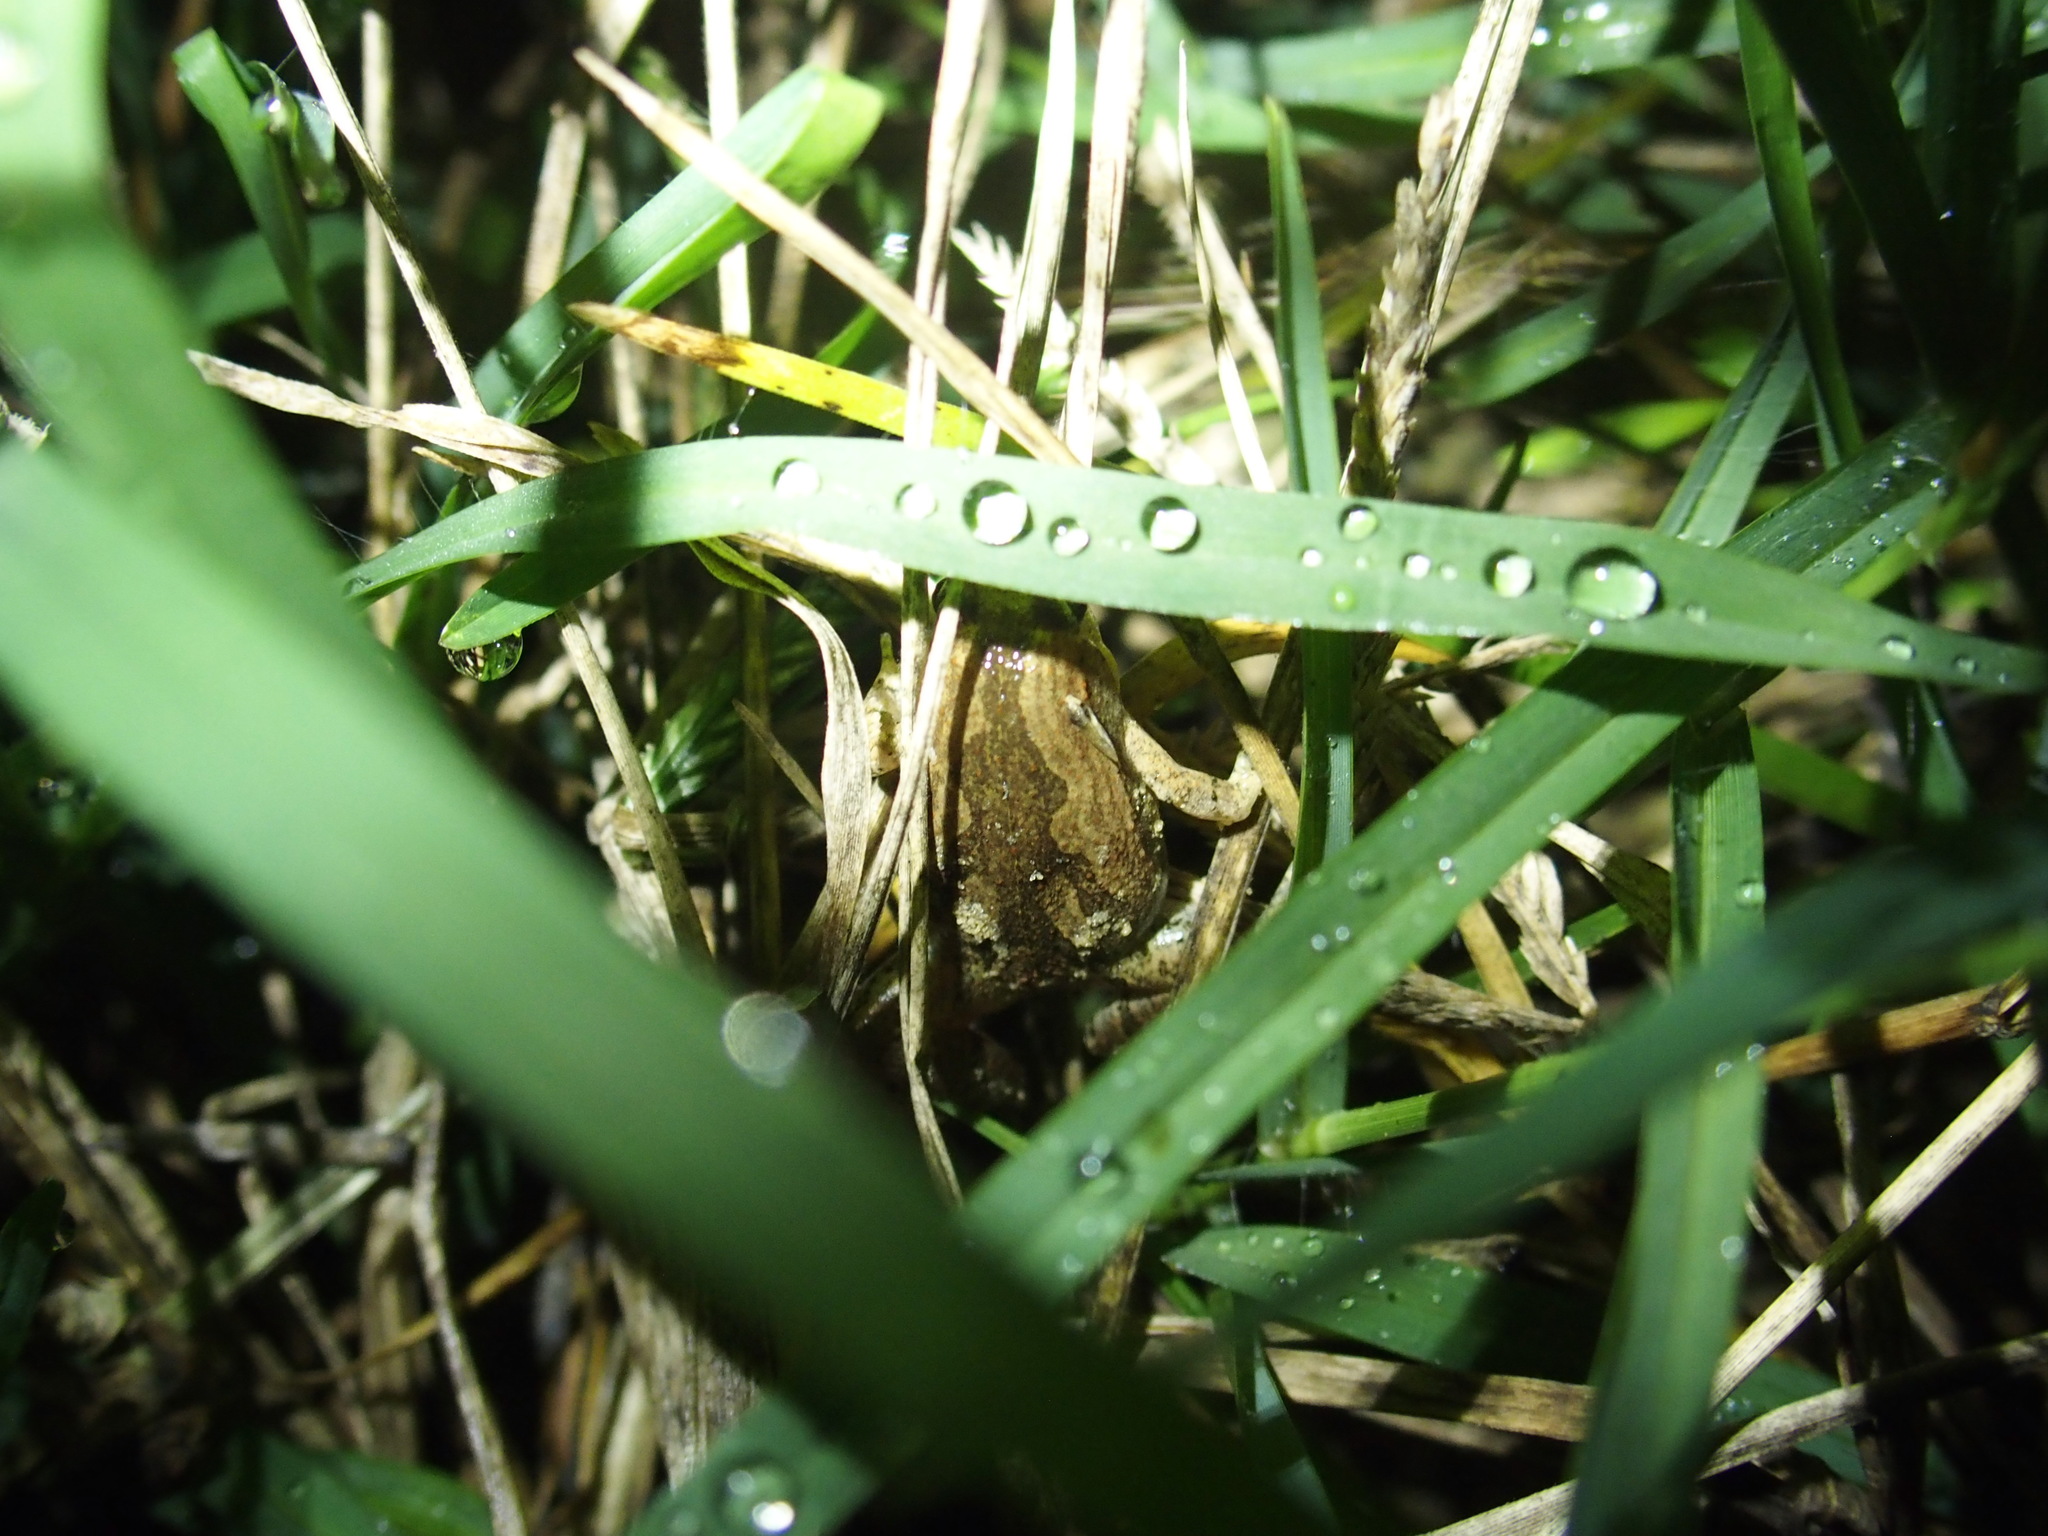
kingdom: Animalia
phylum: Chordata
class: Amphibia
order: Anura
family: Microhylidae
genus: Microhyla
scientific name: Microhyla fissipes
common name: Ornate narrow-mouthed frog
